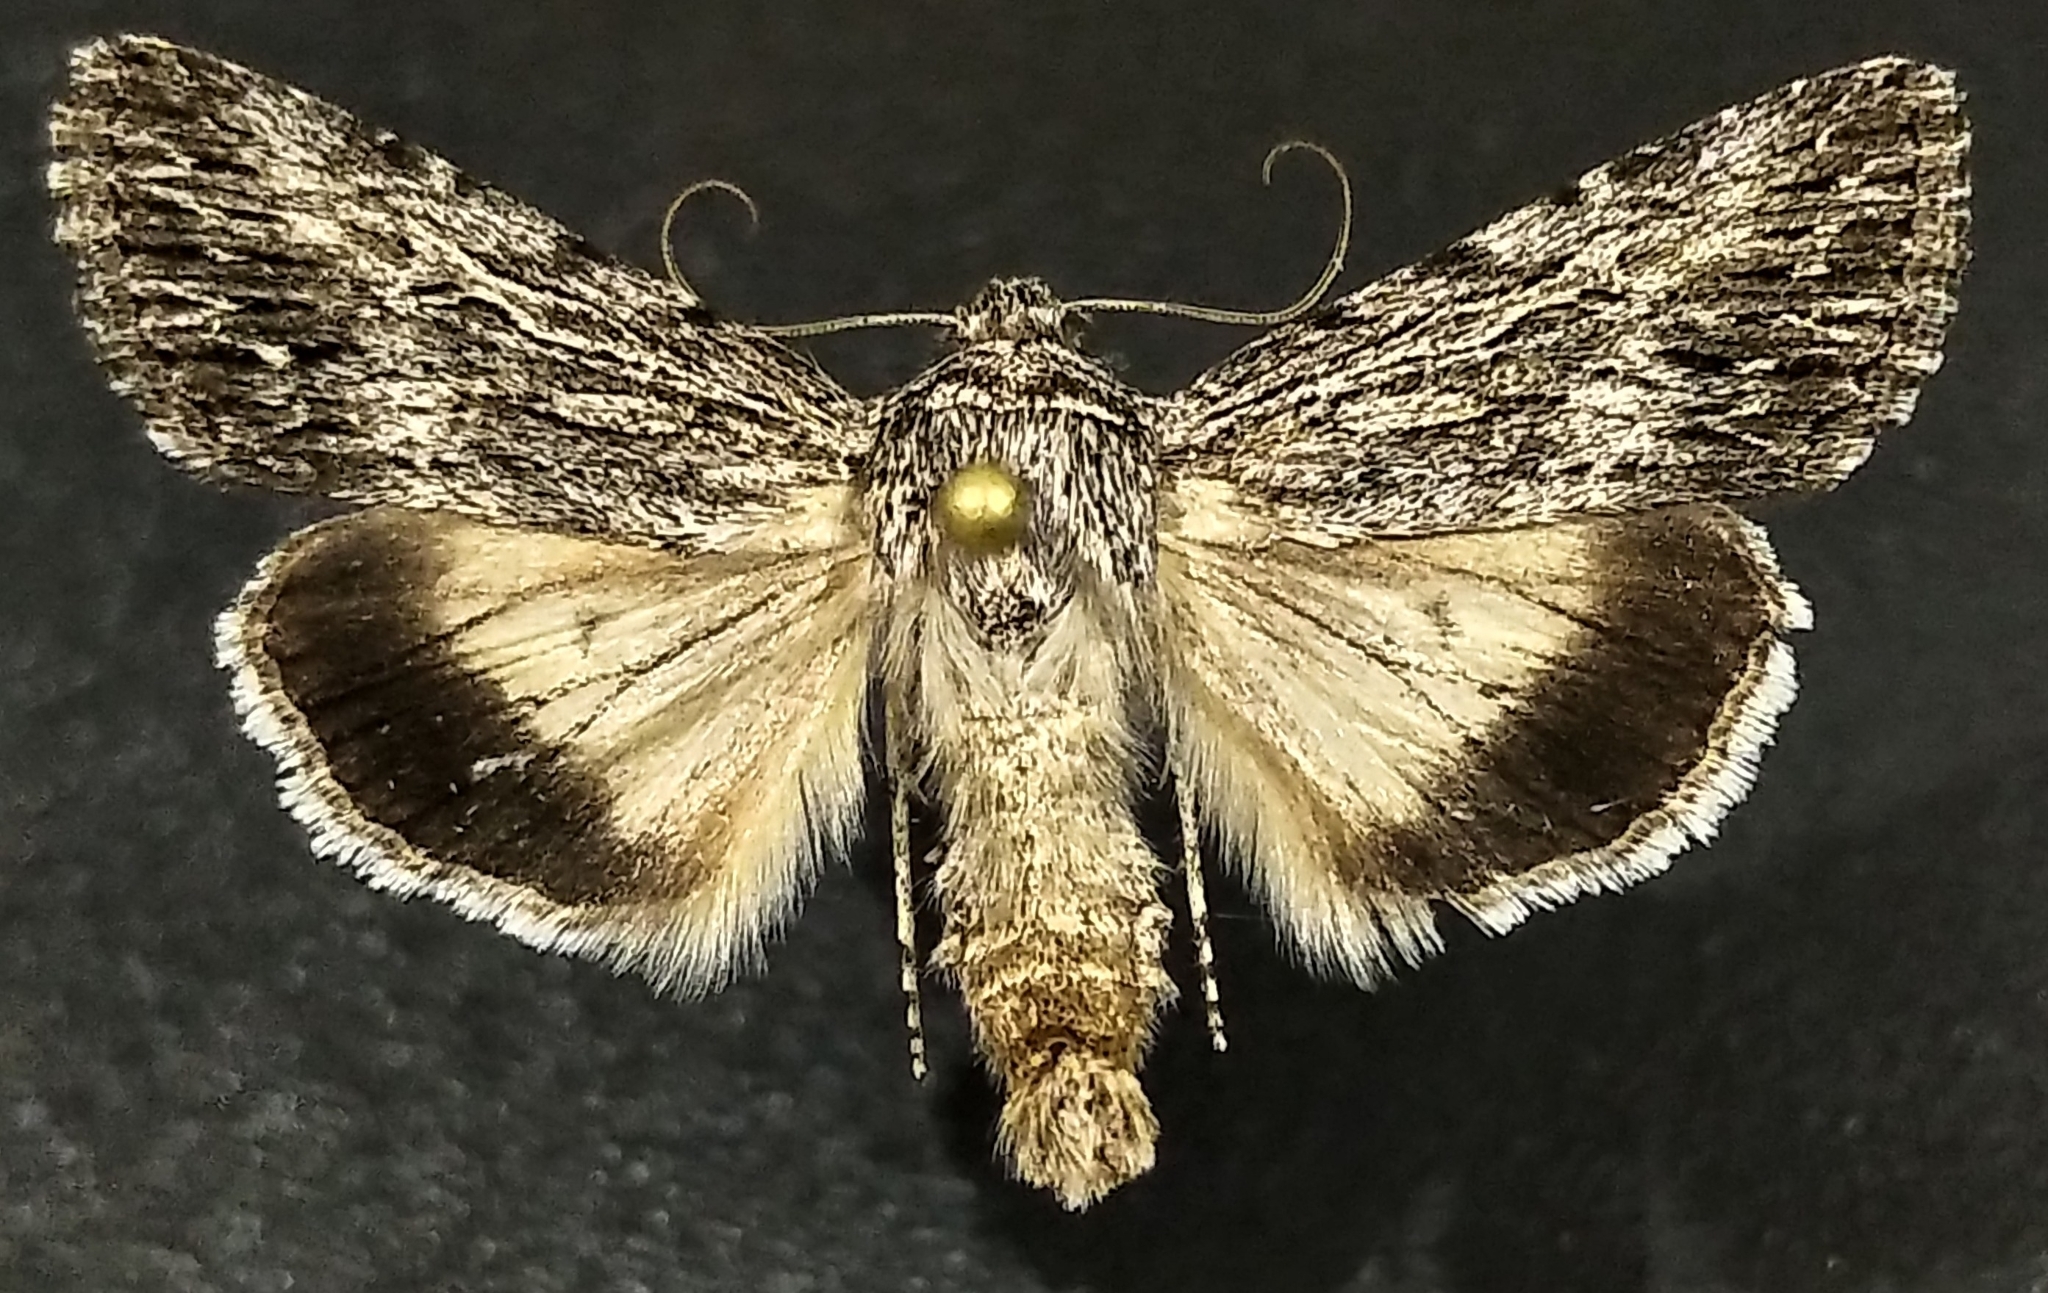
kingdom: Animalia
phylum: Arthropoda
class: Insecta
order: Lepidoptera
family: Noctuidae
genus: Sympistis
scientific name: Sympistis poliochroa
